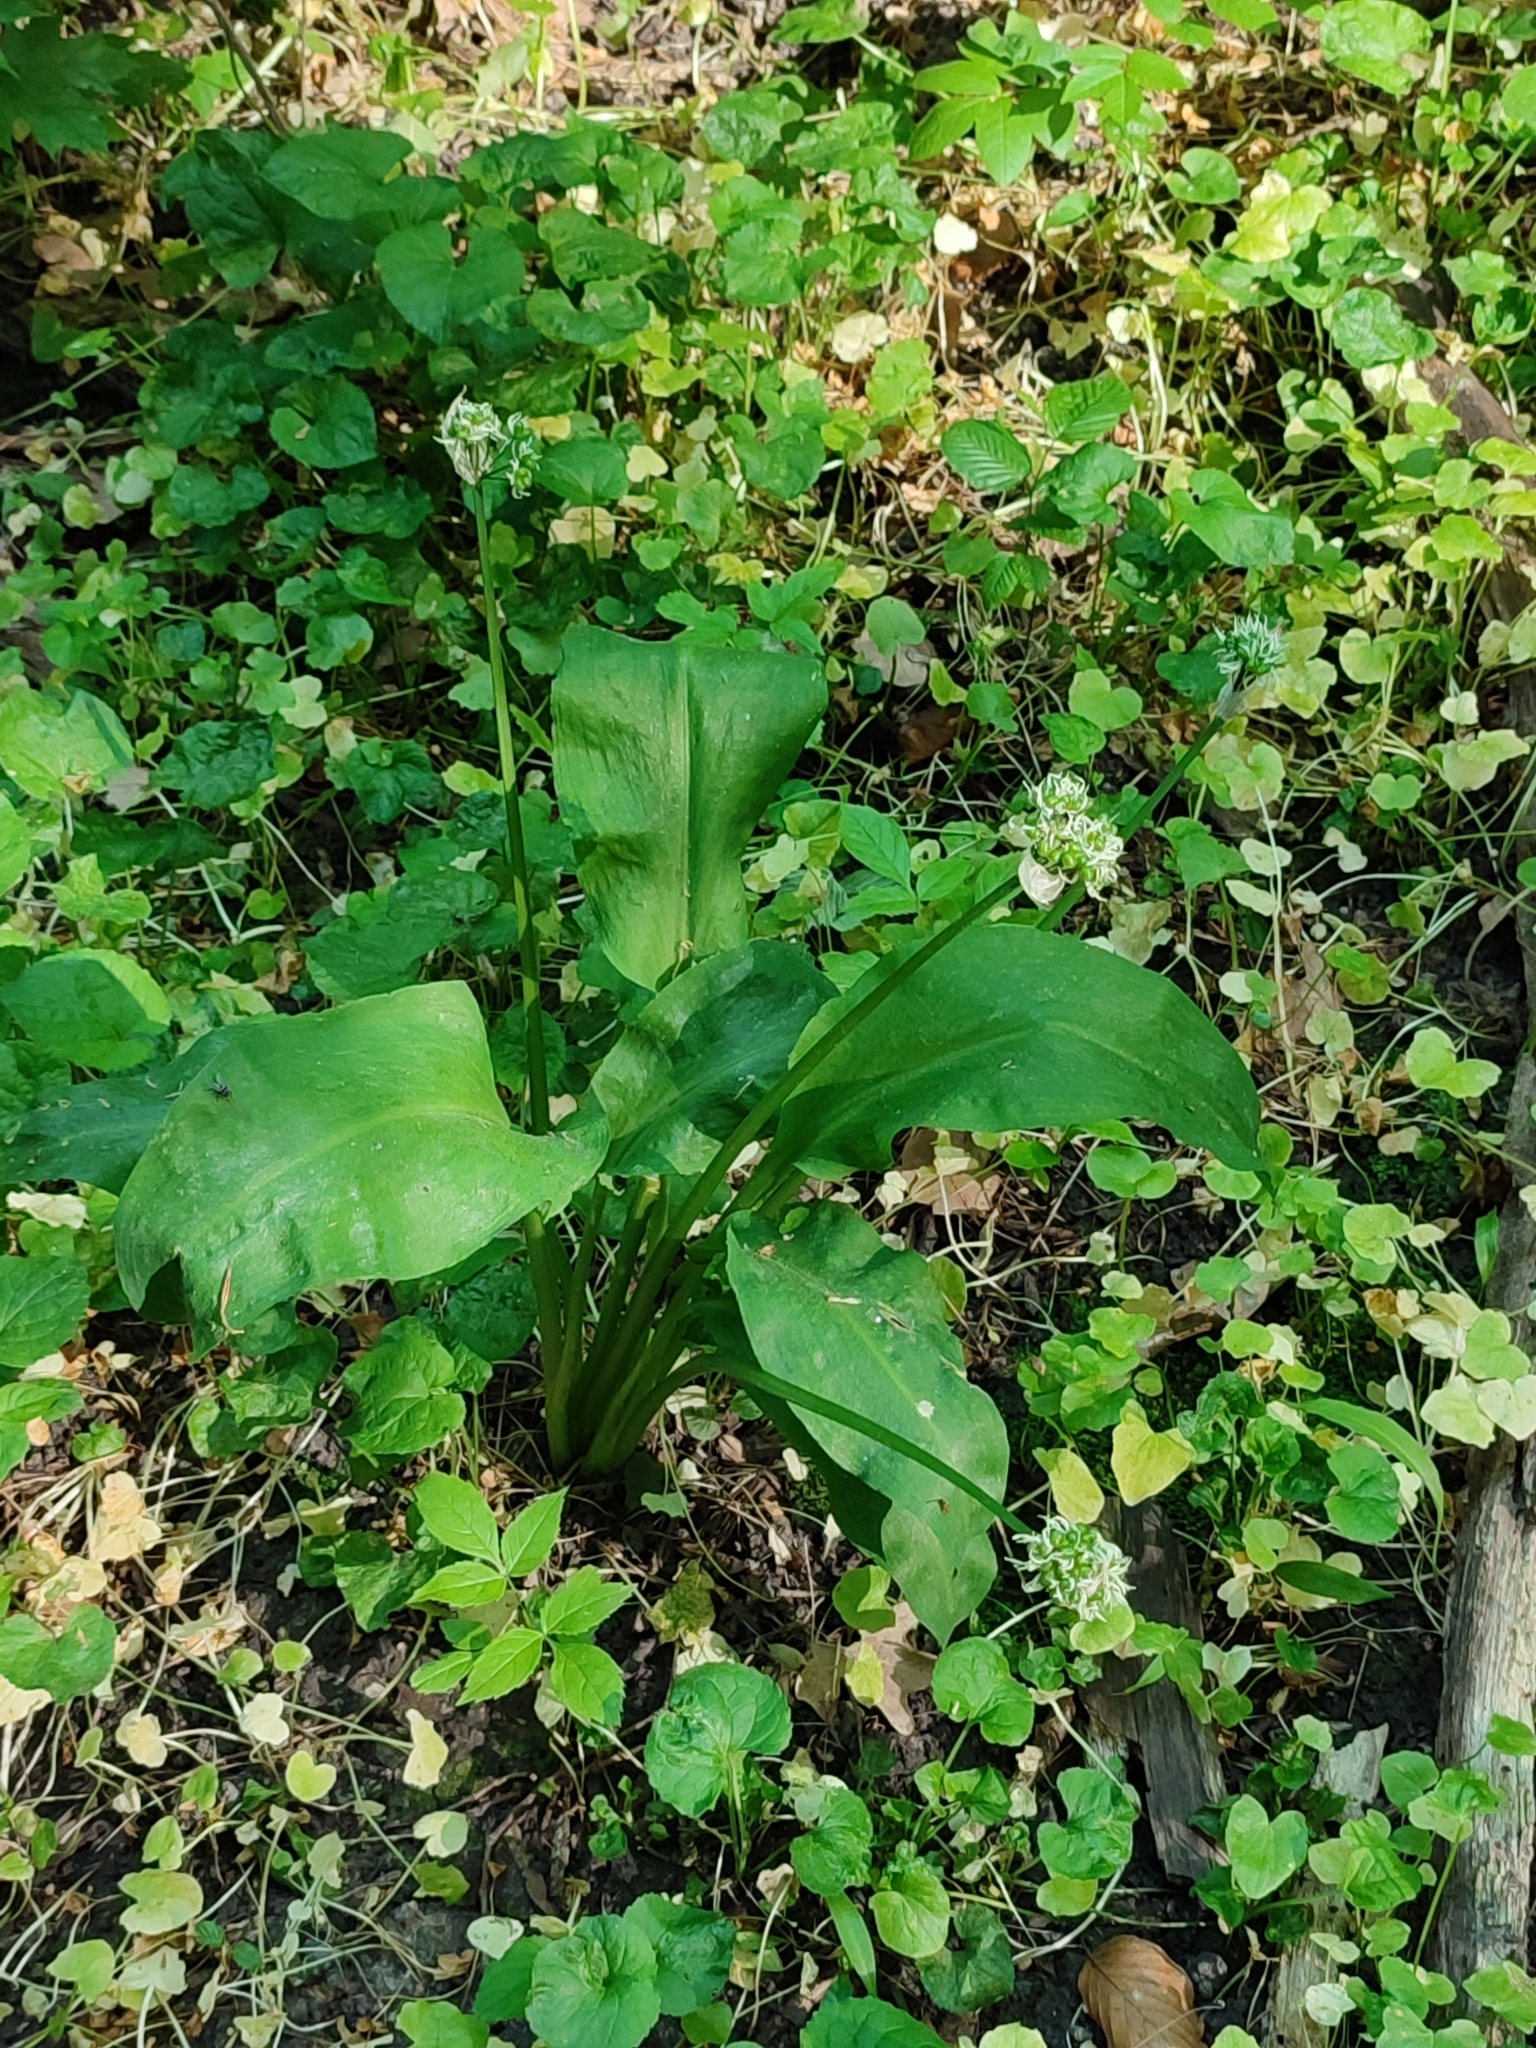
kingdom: Plantae
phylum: Tracheophyta
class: Liliopsida
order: Asparagales
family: Amaryllidaceae
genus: Allium
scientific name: Allium ursinum
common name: Ramsons
